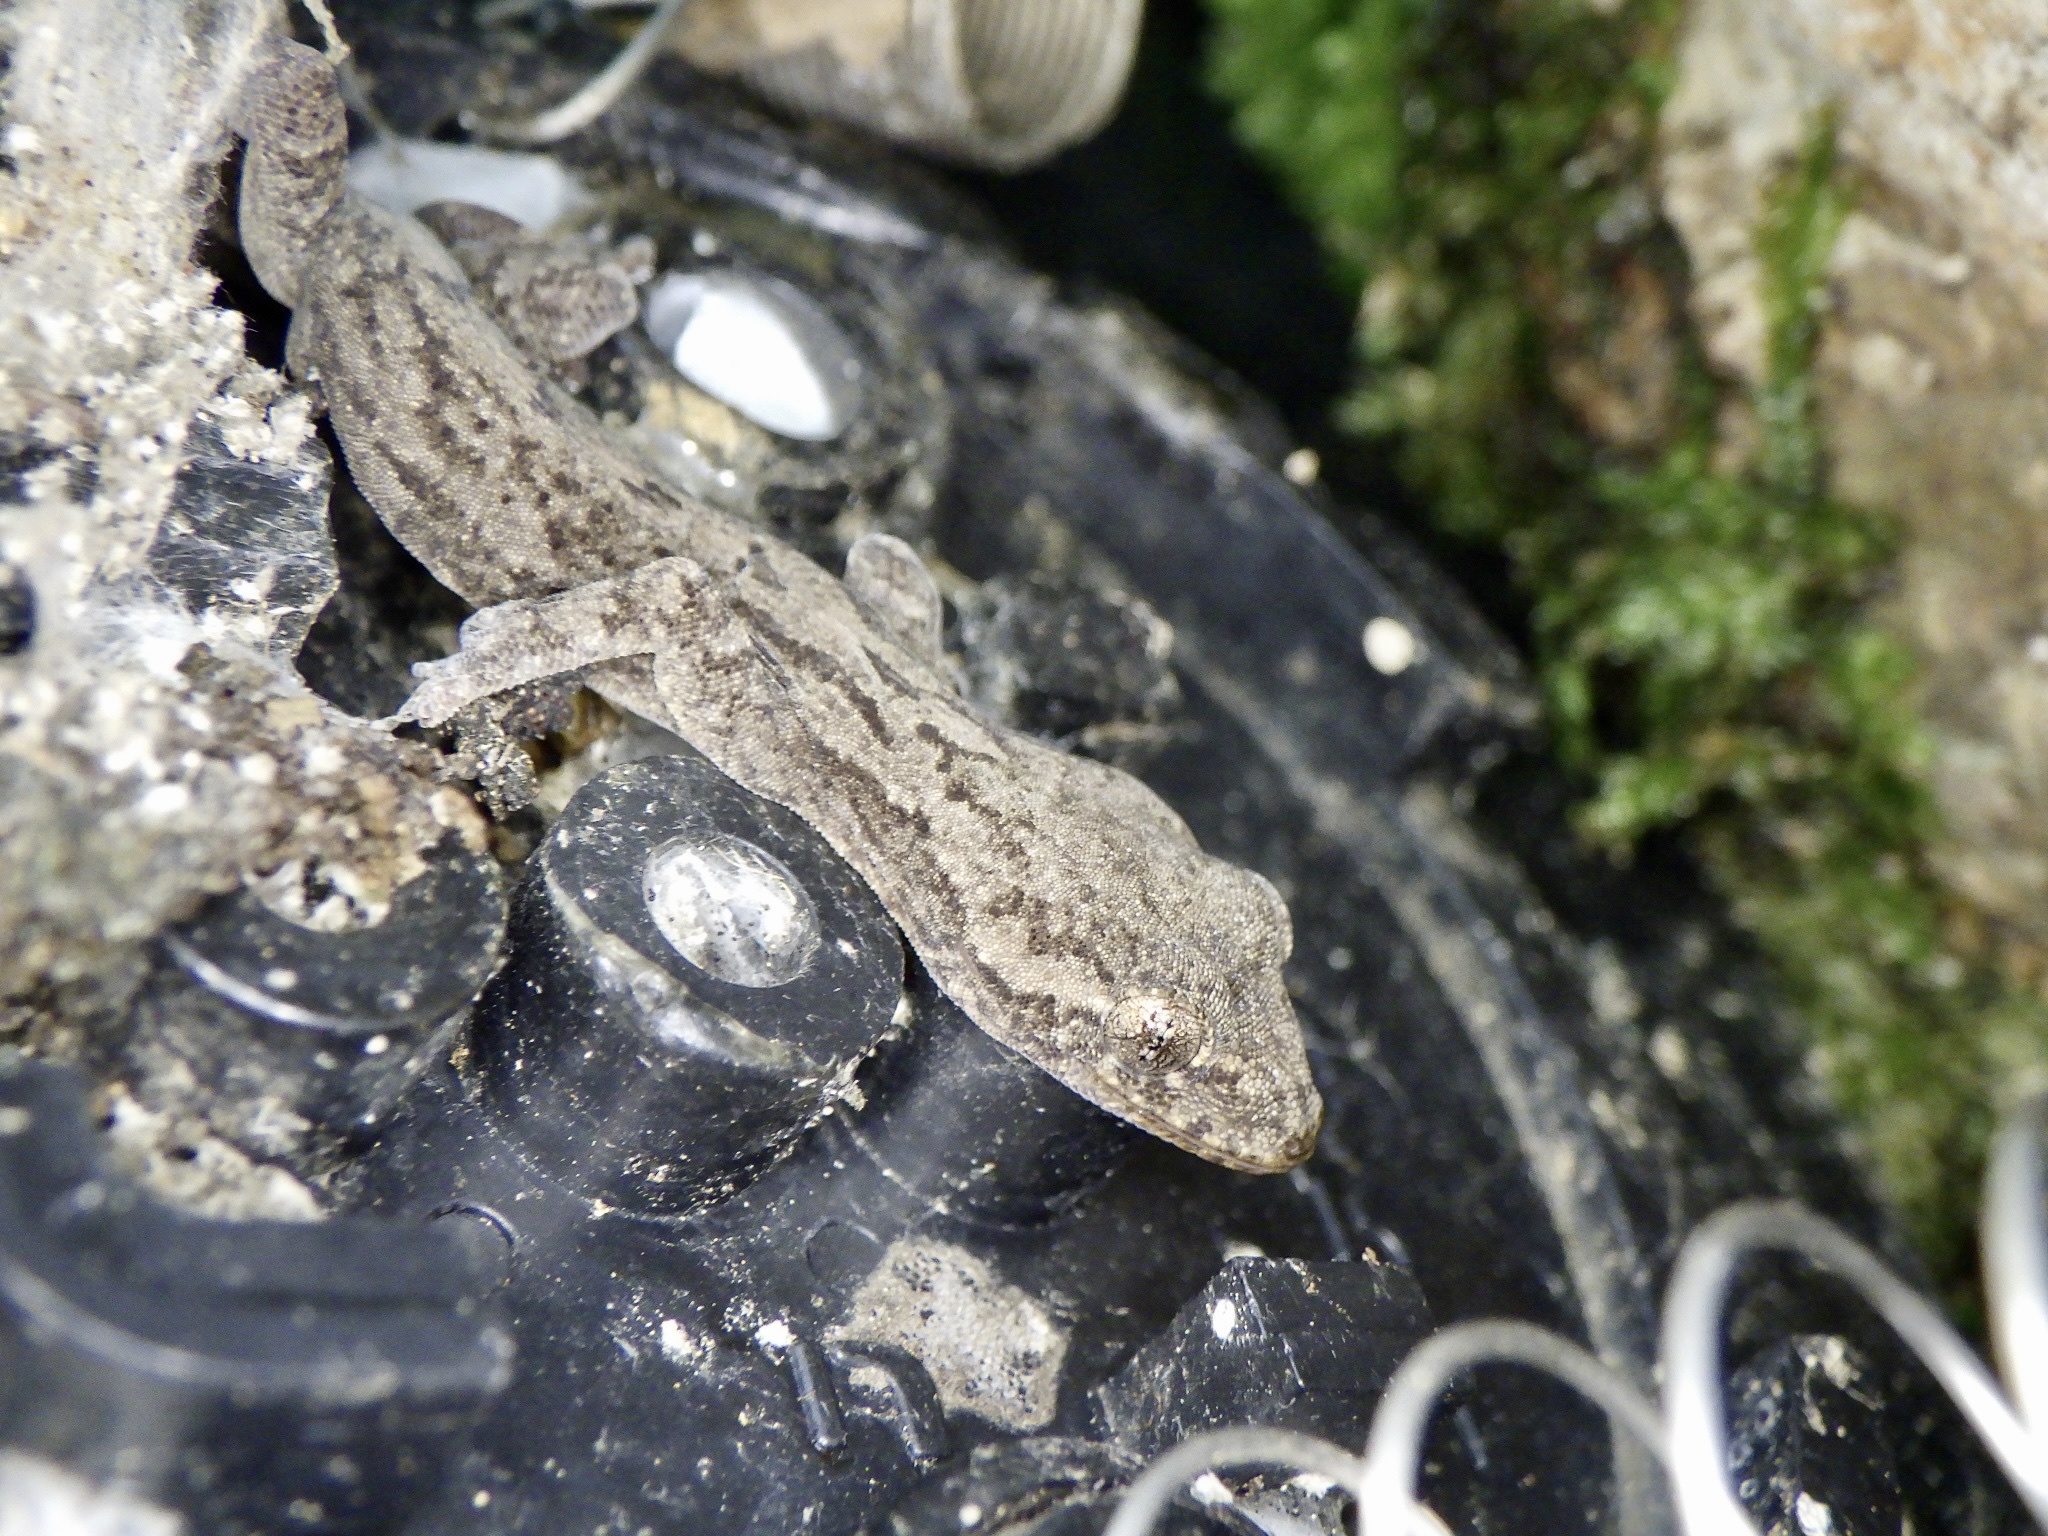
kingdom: Animalia
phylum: Chordata
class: Squamata
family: Gekkonidae
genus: Gekko
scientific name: Gekko japonicus
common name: Schlegel's japanese gecko
